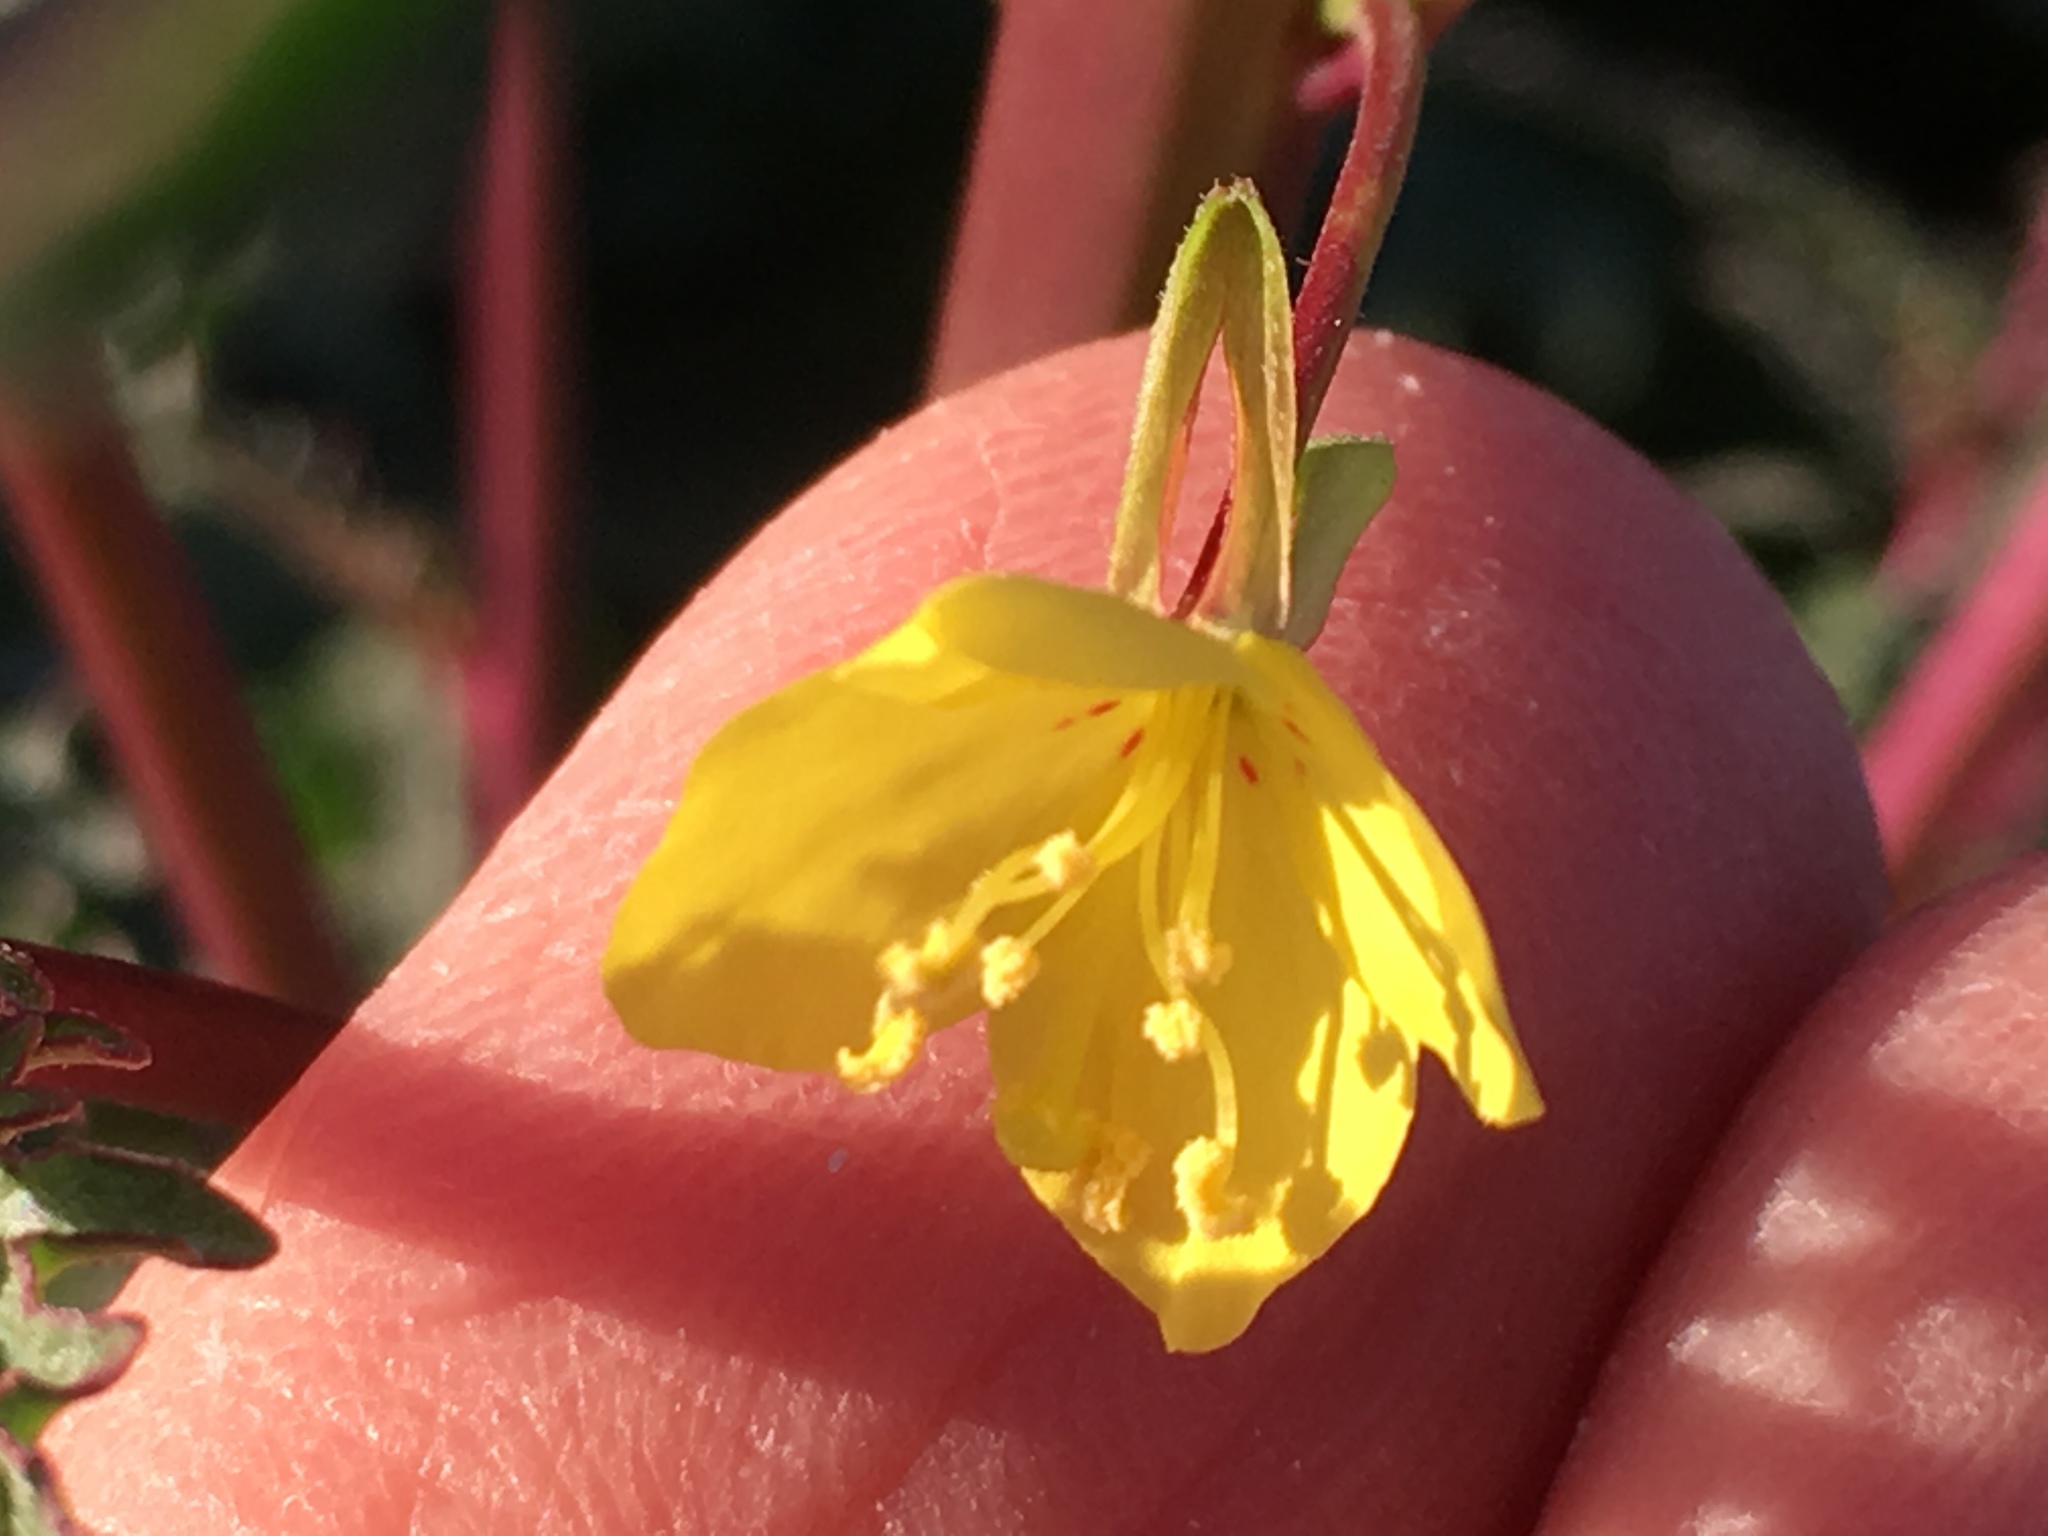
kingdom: Plantae
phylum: Tracheophyta
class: Magnoliopsida
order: Myrtales
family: Onagraceae
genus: Eulobus
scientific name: Eulobus californicus
